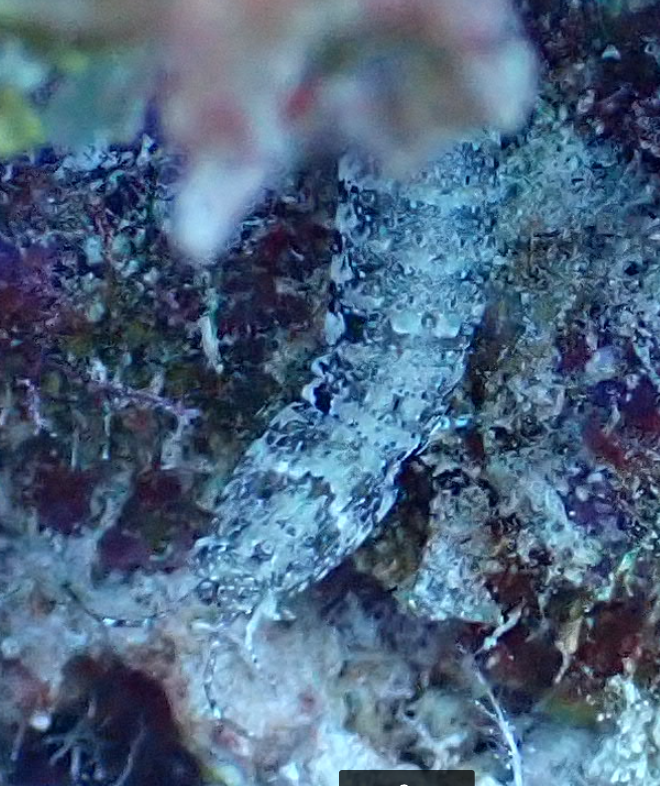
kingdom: Animalia
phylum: Arthropoda
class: Malacostraca
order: Stomatopoda
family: Pseudosquillidae
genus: Pseudosquilla
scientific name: Pseudosquilla ciliata
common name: Ciliated false squilla
